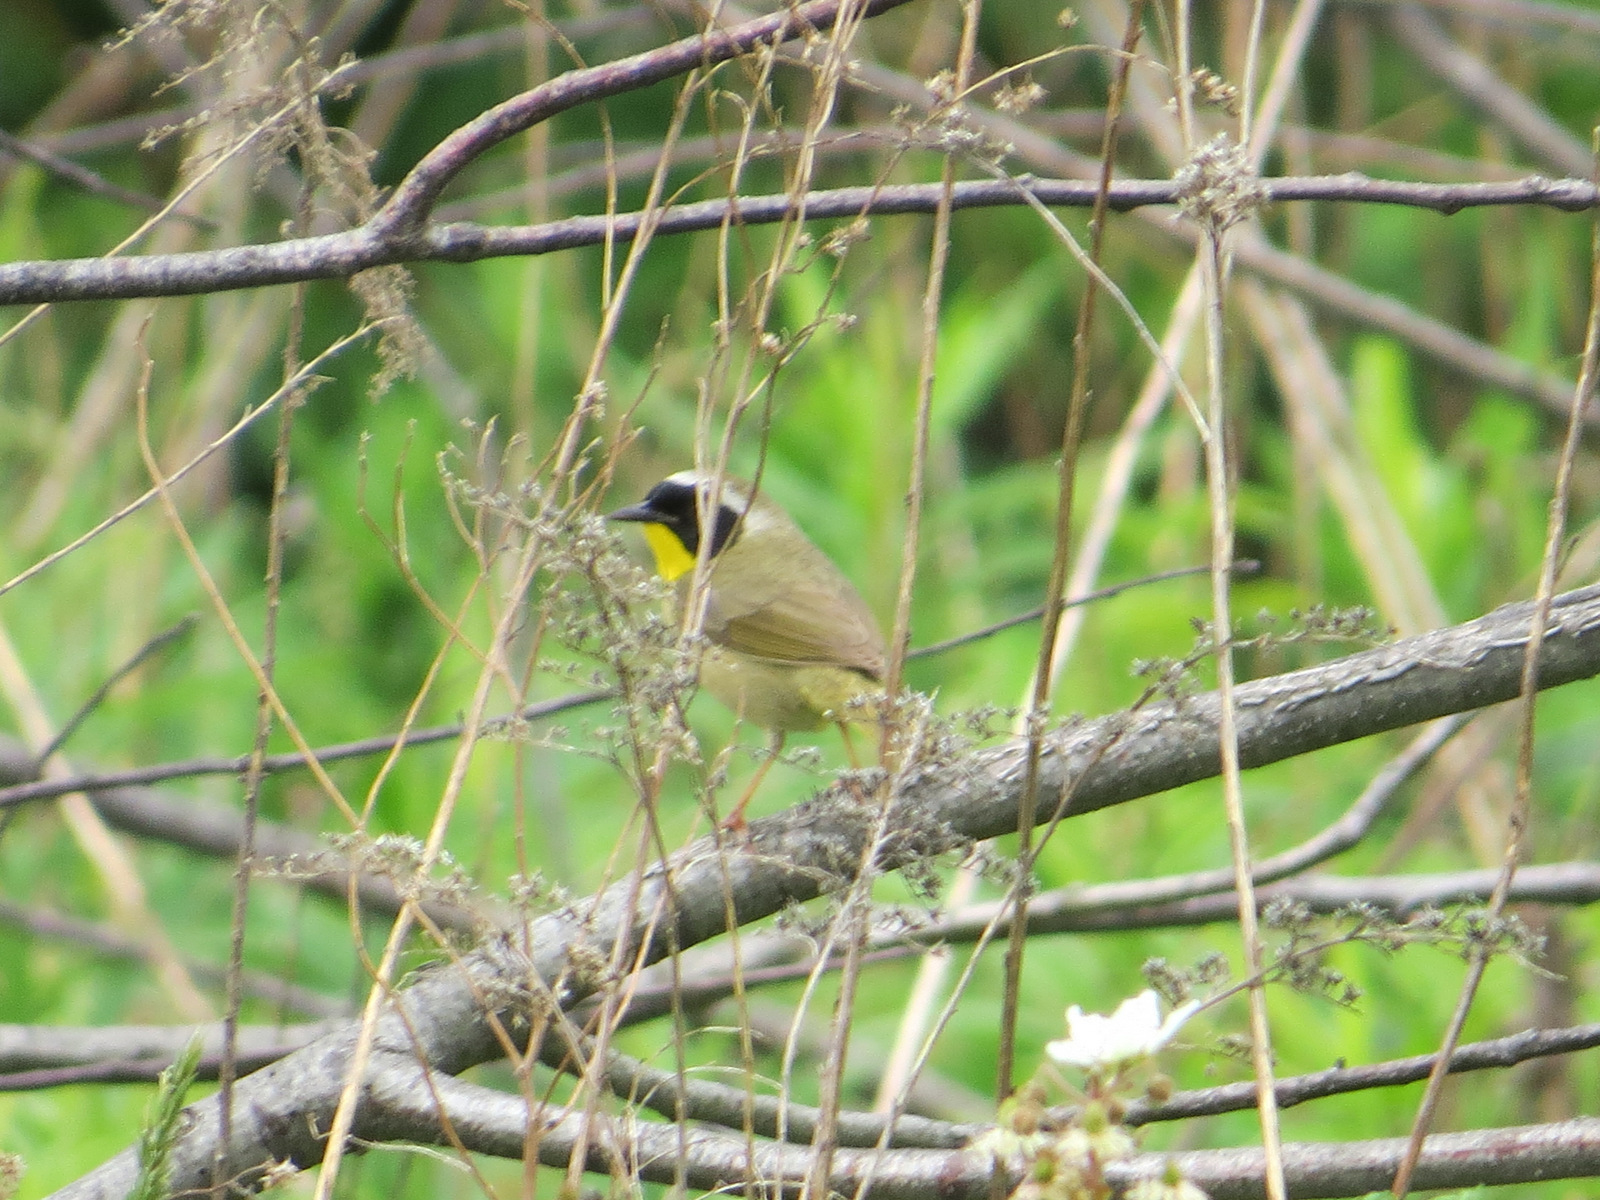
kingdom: Animalia
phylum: Chordata
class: Aves
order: Passeriformes
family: Parulidae
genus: Geothlypis
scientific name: Geothlypis trichas
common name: Common yellowthroat
